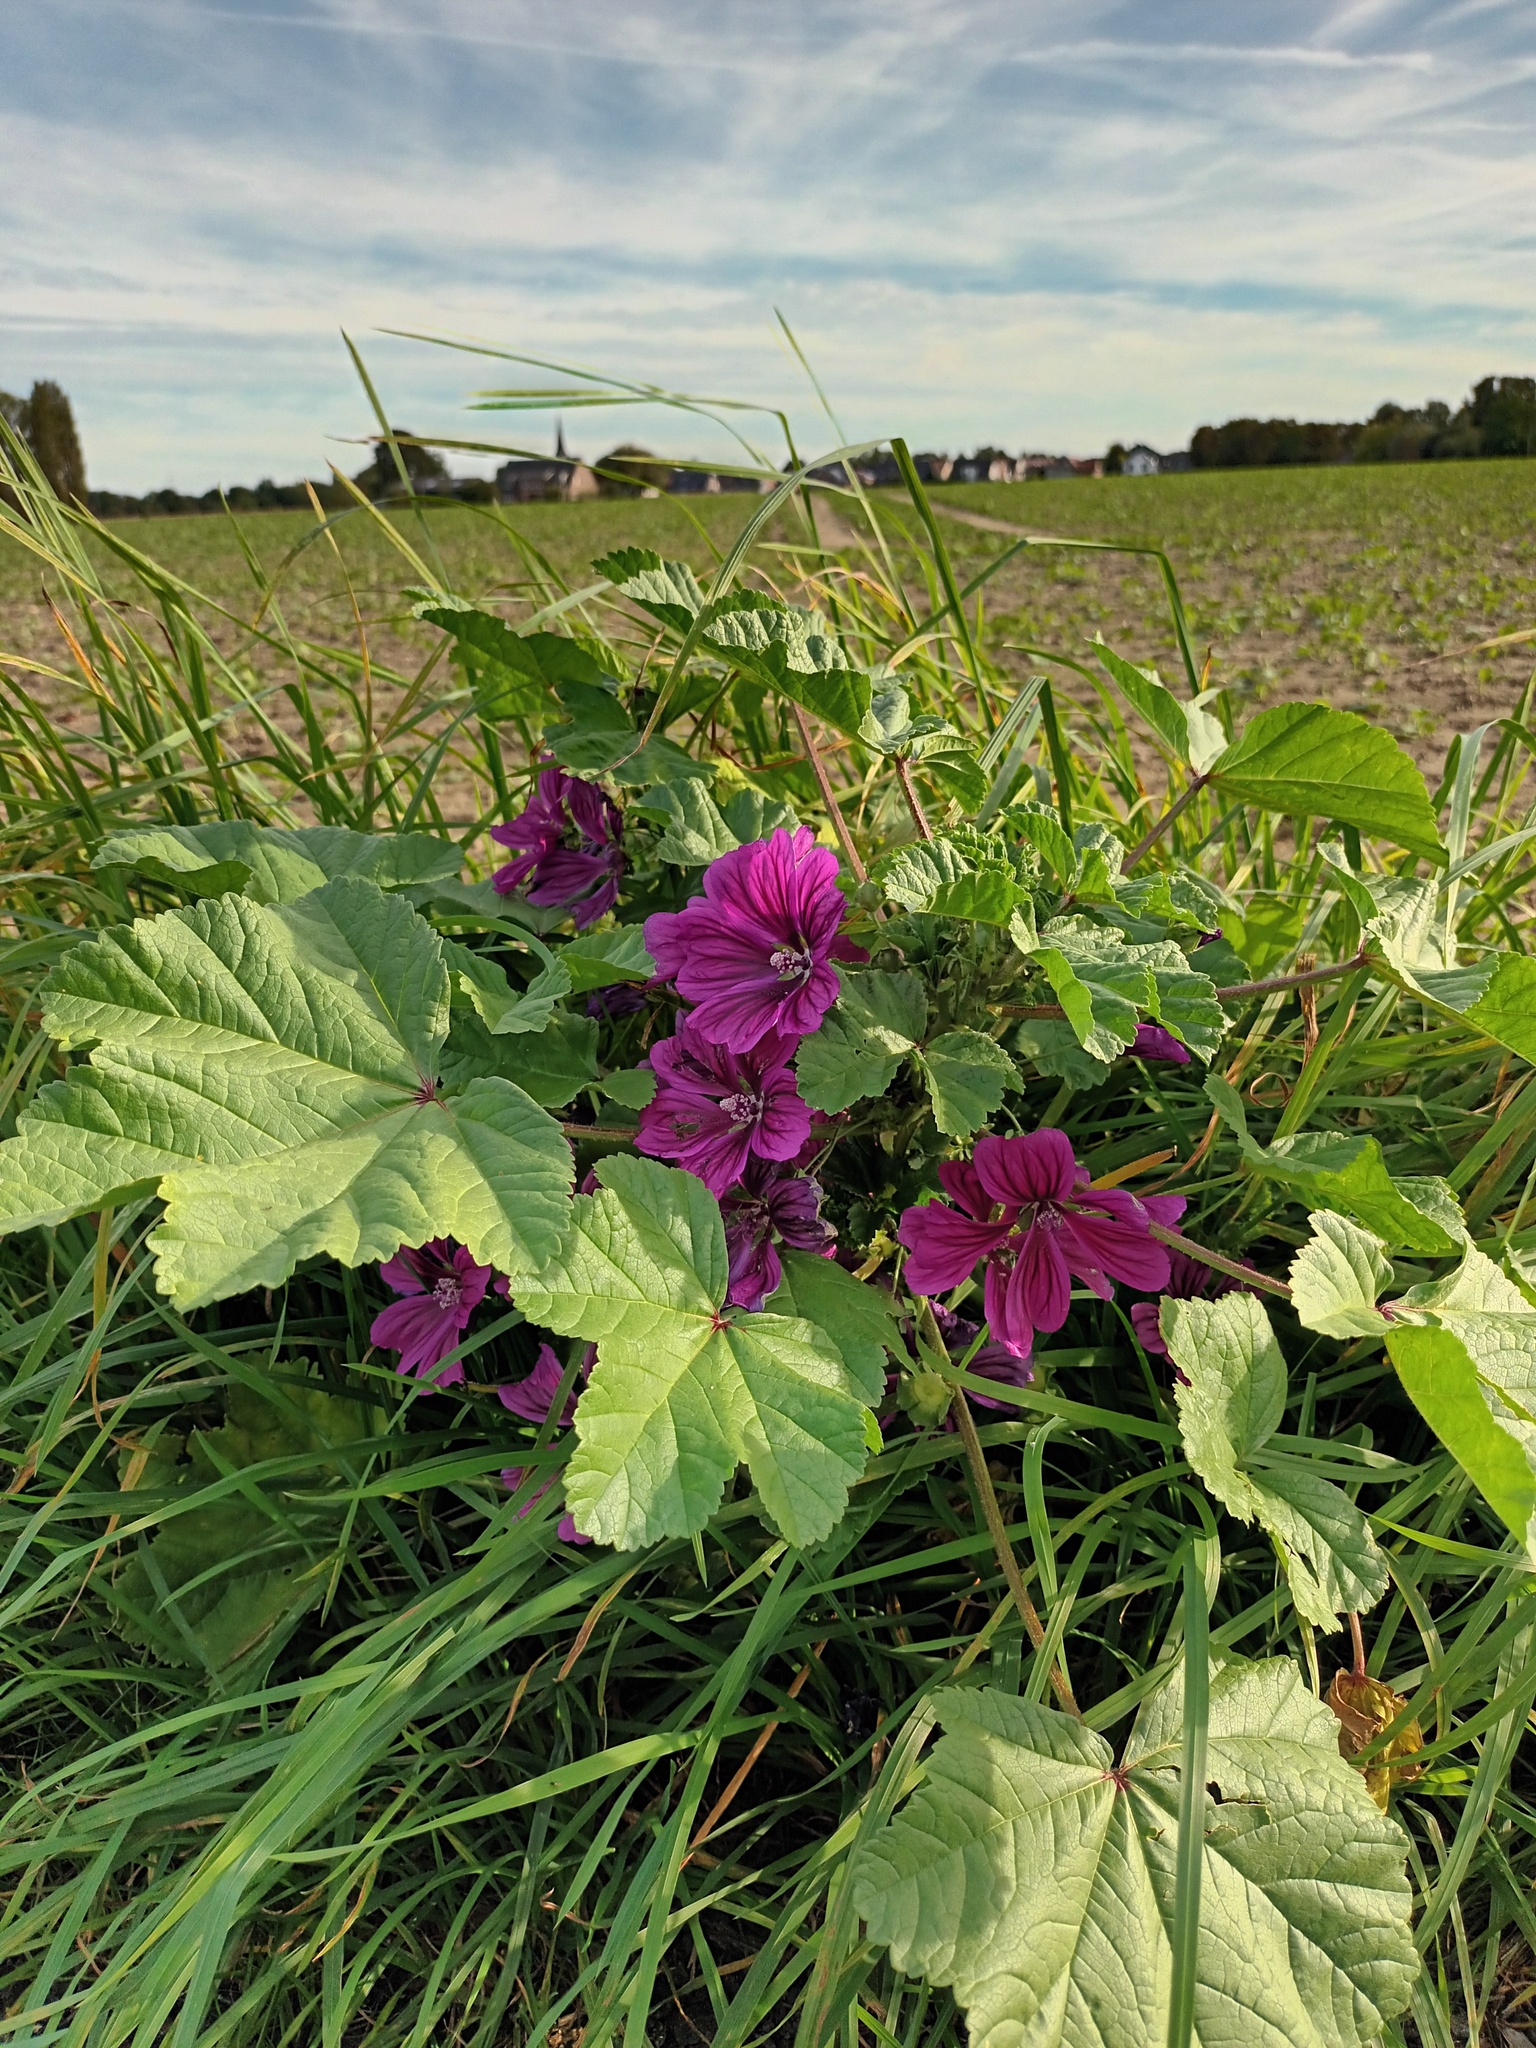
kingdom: Plantae
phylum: Tracheophyta
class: Magnoliopsida
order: Malvales
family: Malvaceae
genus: Malva
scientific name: Malva sylvestris
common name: Common mallow
